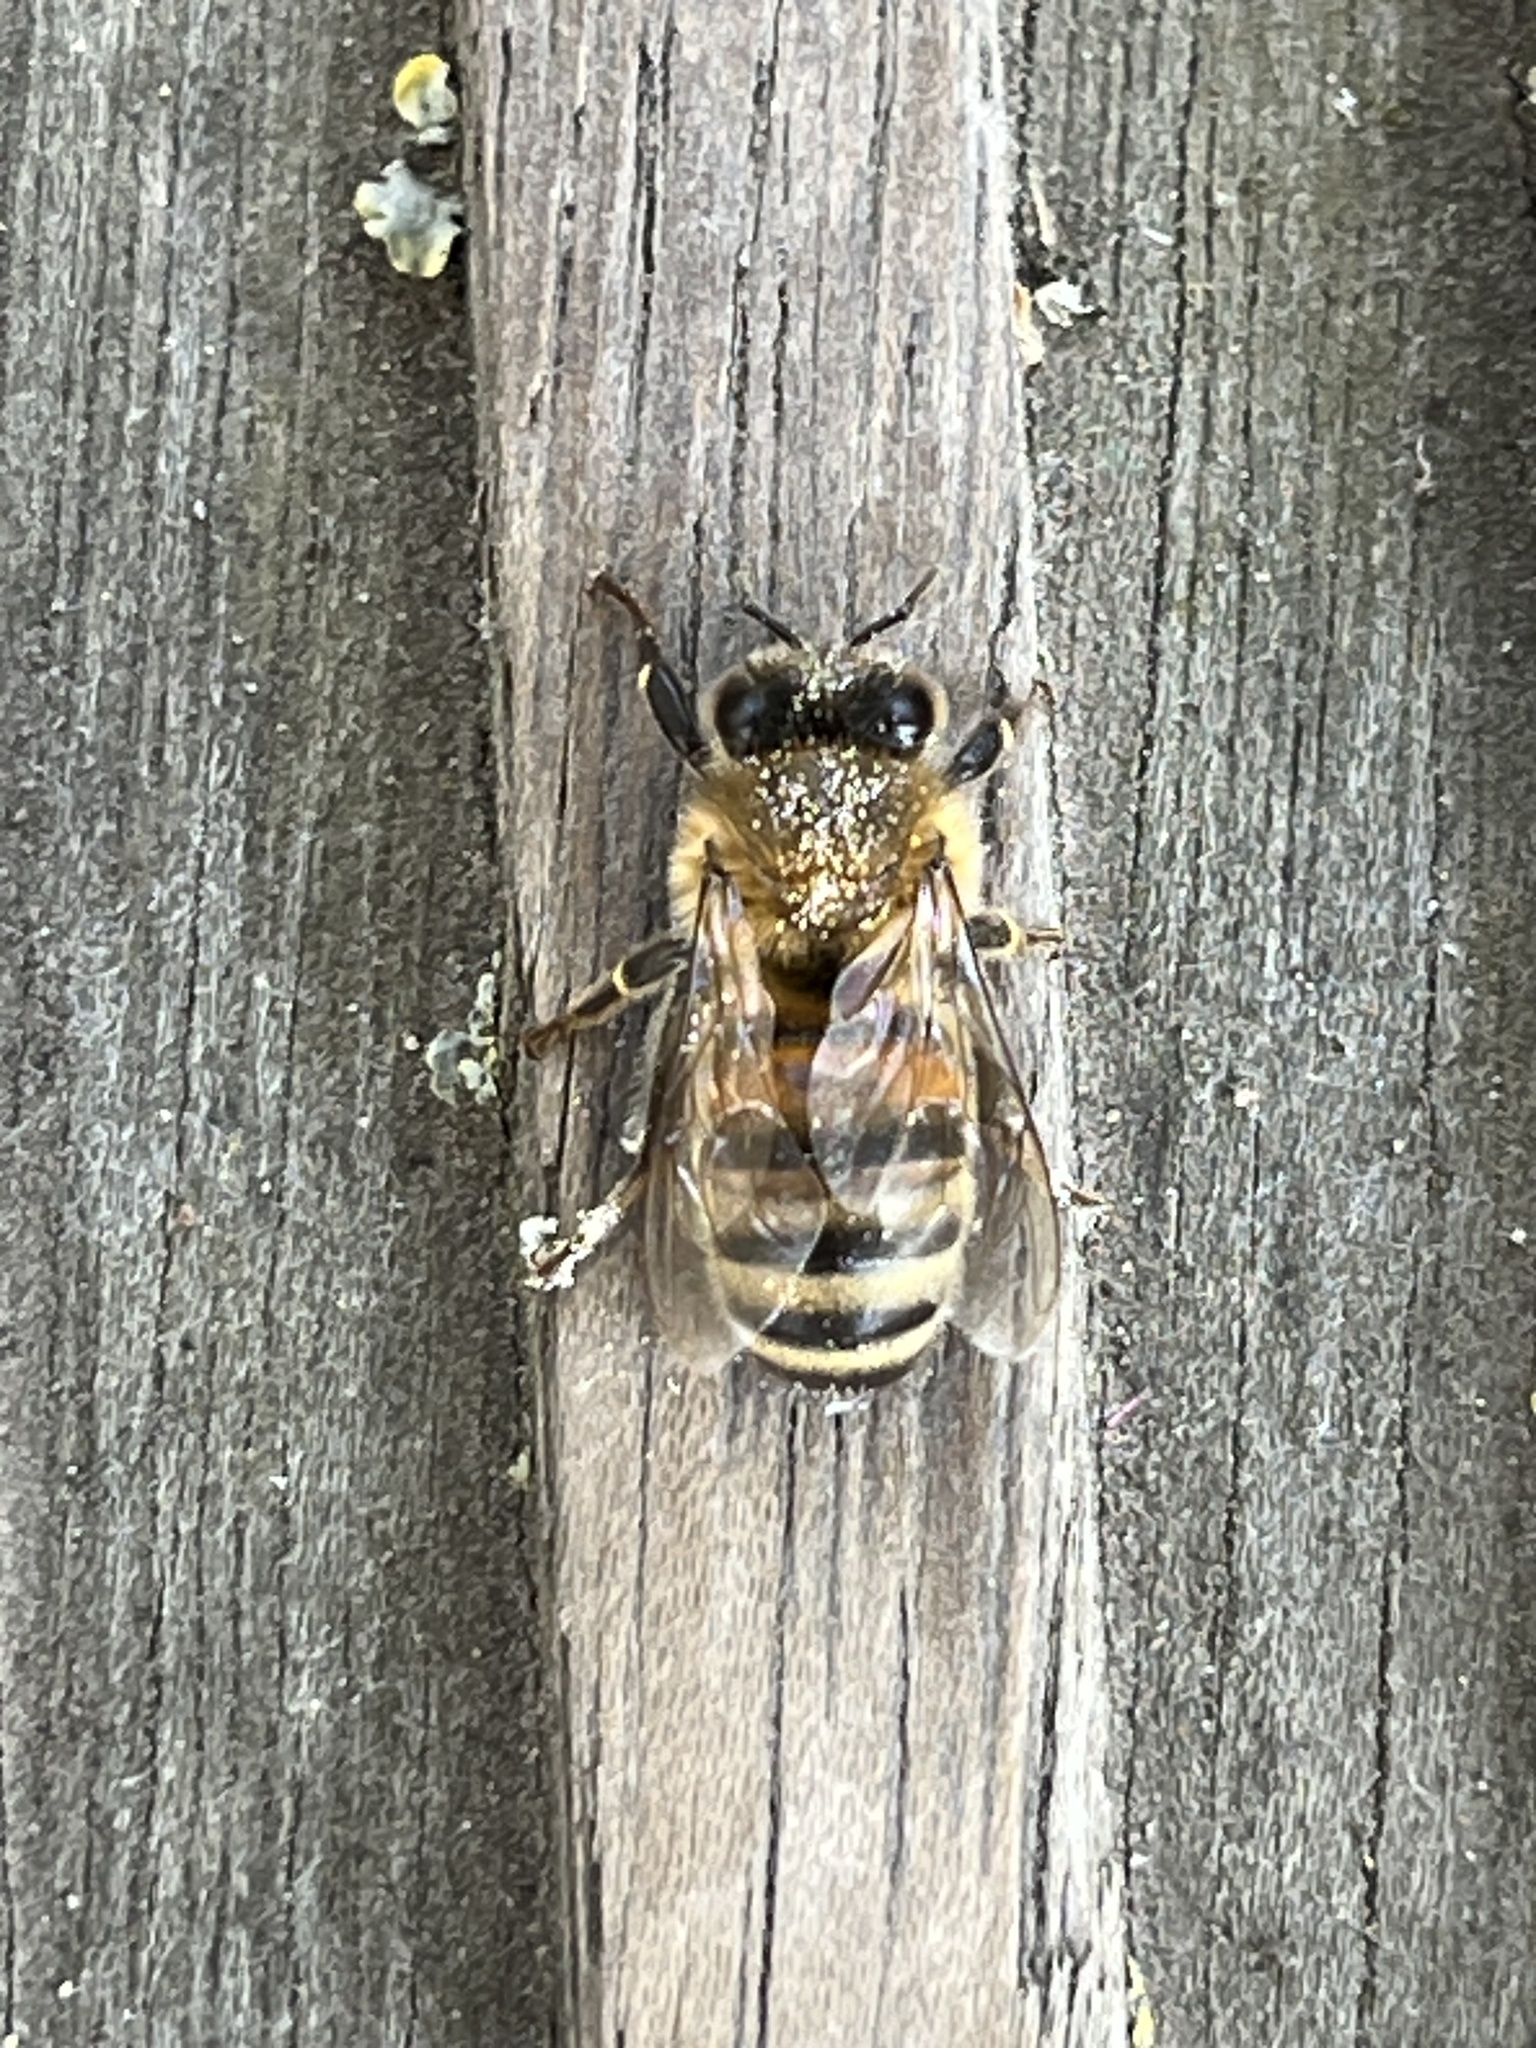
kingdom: Animalia
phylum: Arthropoda
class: Insecta
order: Hymenoptera
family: Apidae
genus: Apis
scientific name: Apis mellifera
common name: Honey bee
